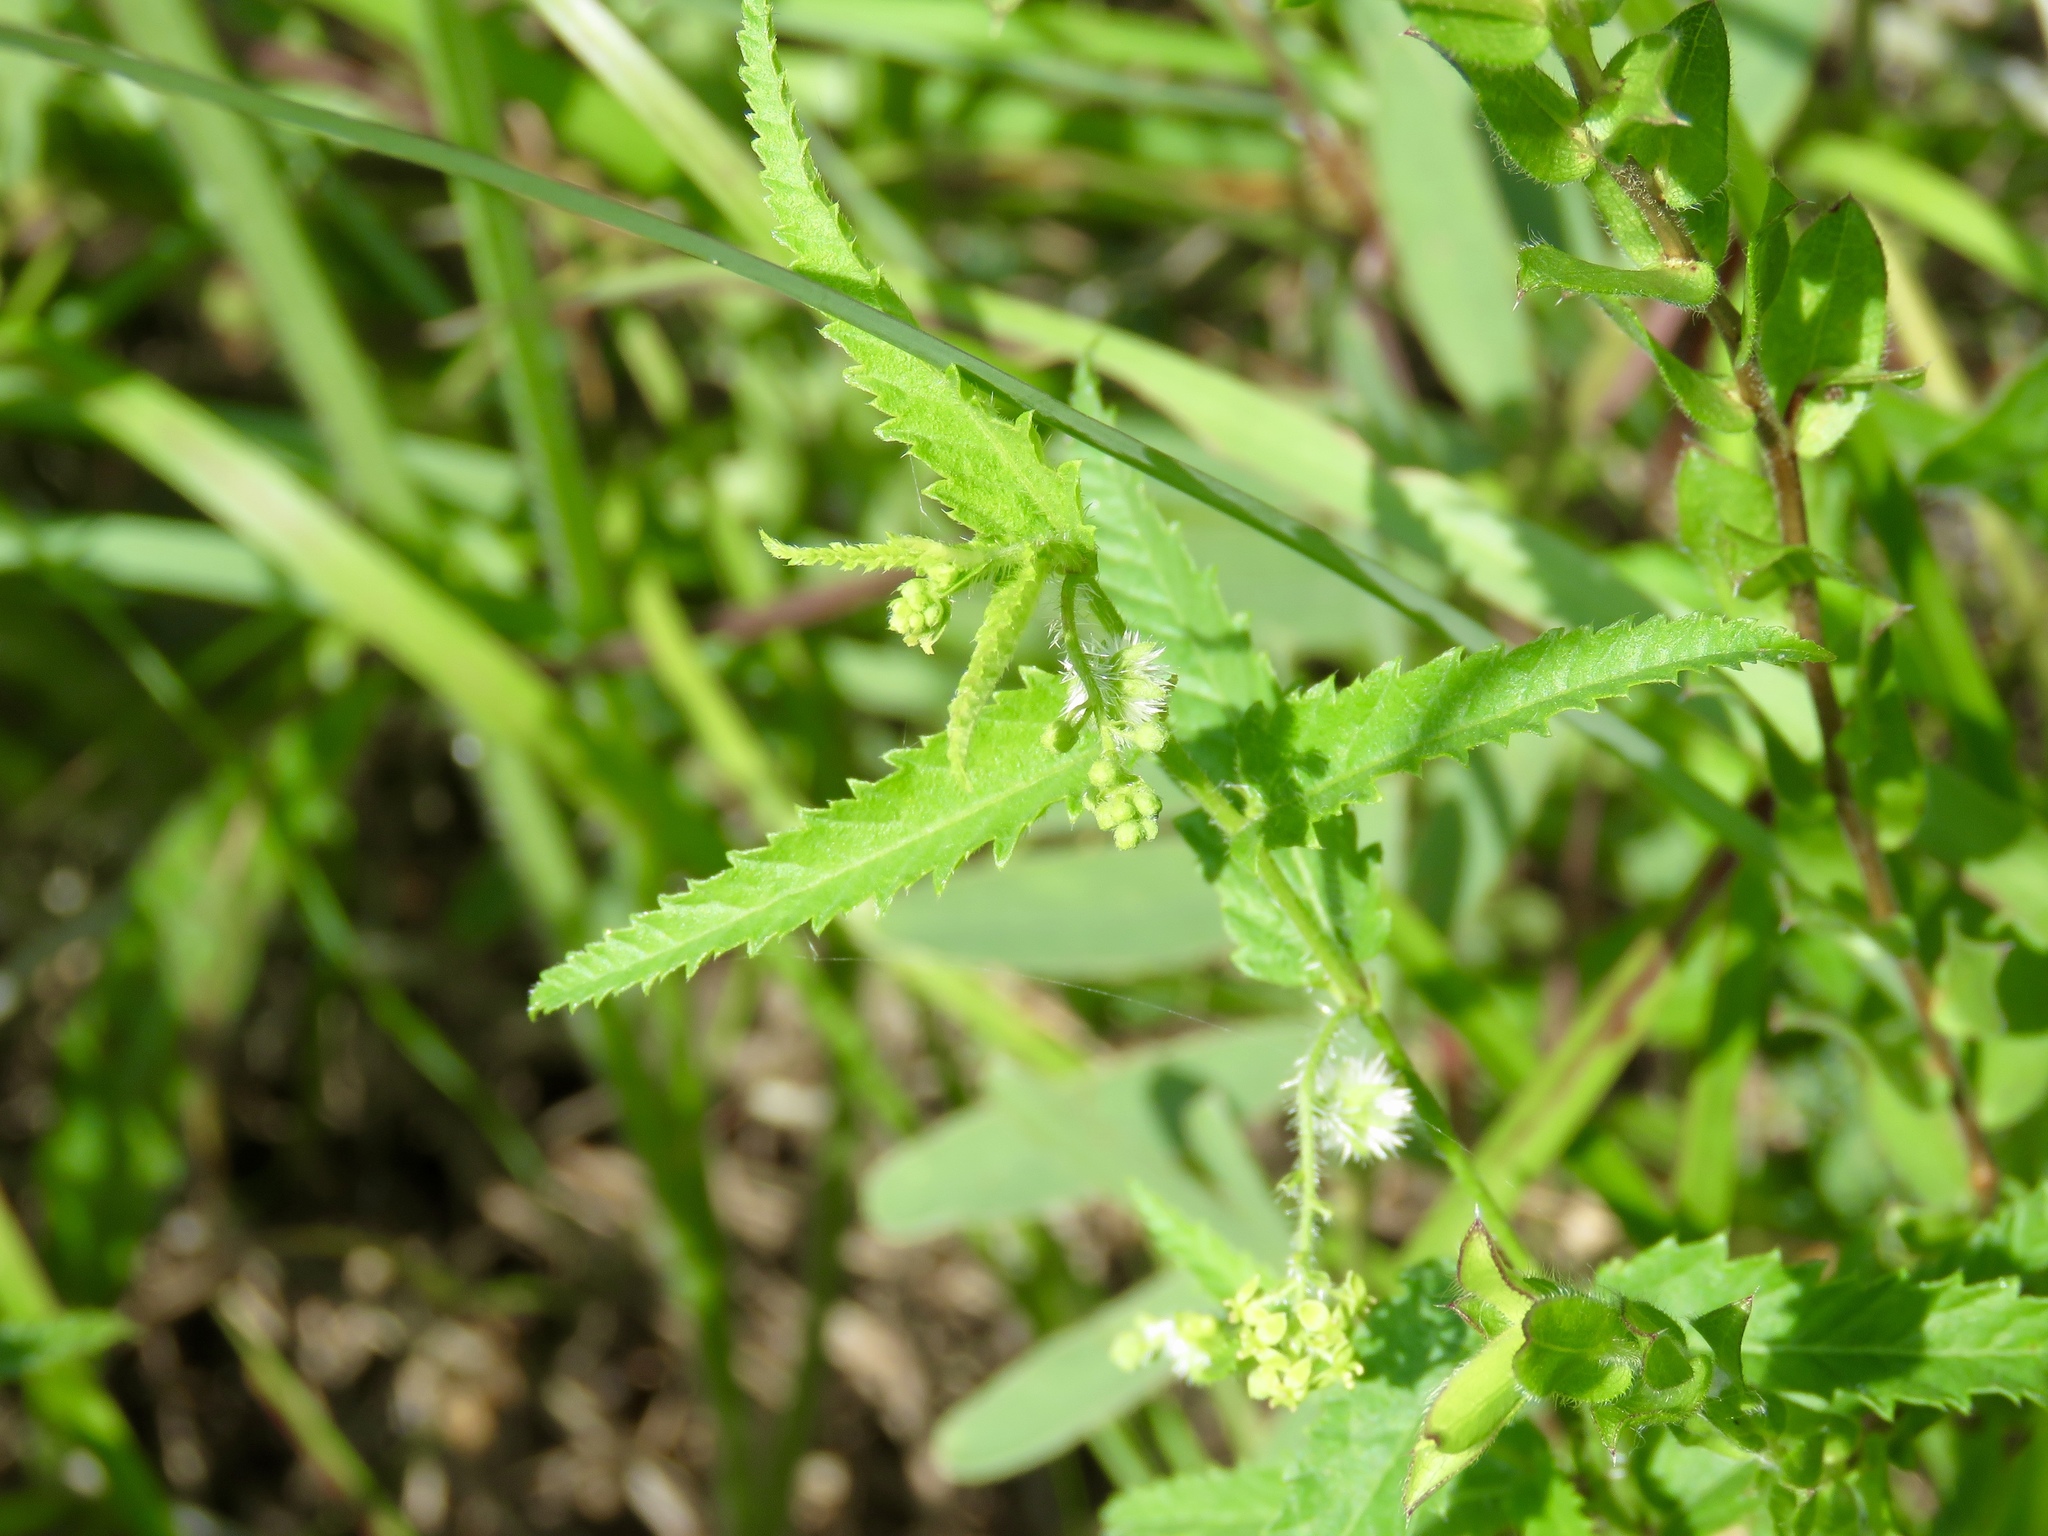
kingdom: Plantae
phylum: Tracheophyta
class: Magnoliopsida
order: Malpighiales
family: Euphorbiaceae
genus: Tragia
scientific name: Tragia urticifolia
